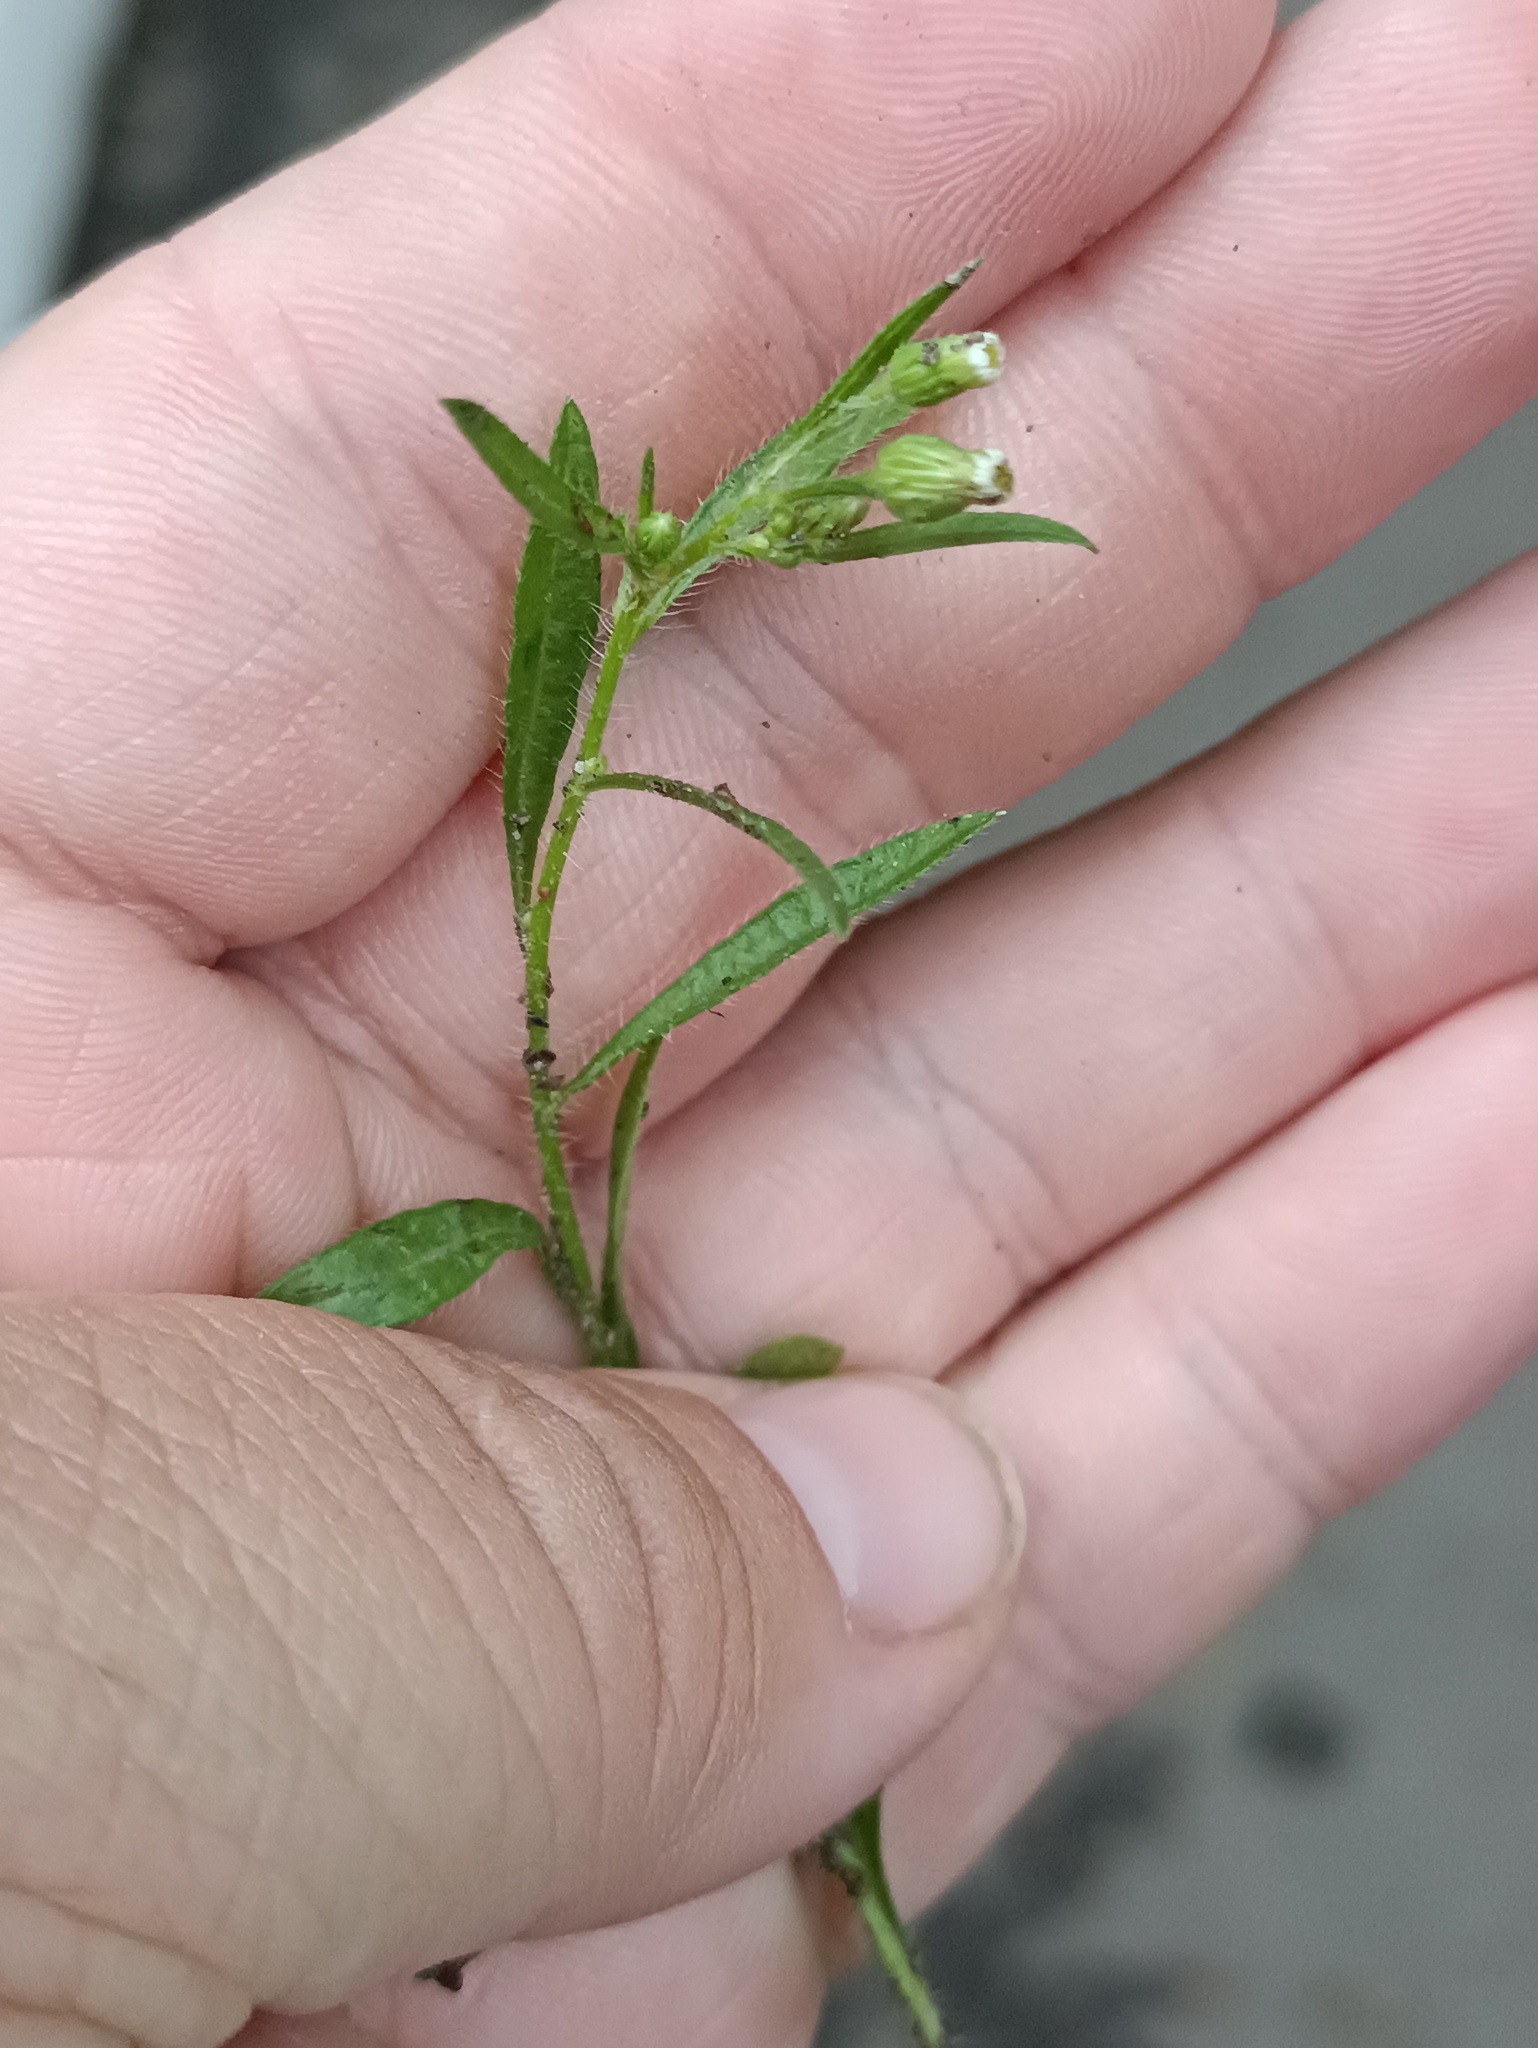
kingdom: Plantae
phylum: Tracheophyta
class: Magnoliopsida
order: Asterales
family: Asteraceae
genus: Erigeron
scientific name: Erigeron canadensis
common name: Canadian fleabane
